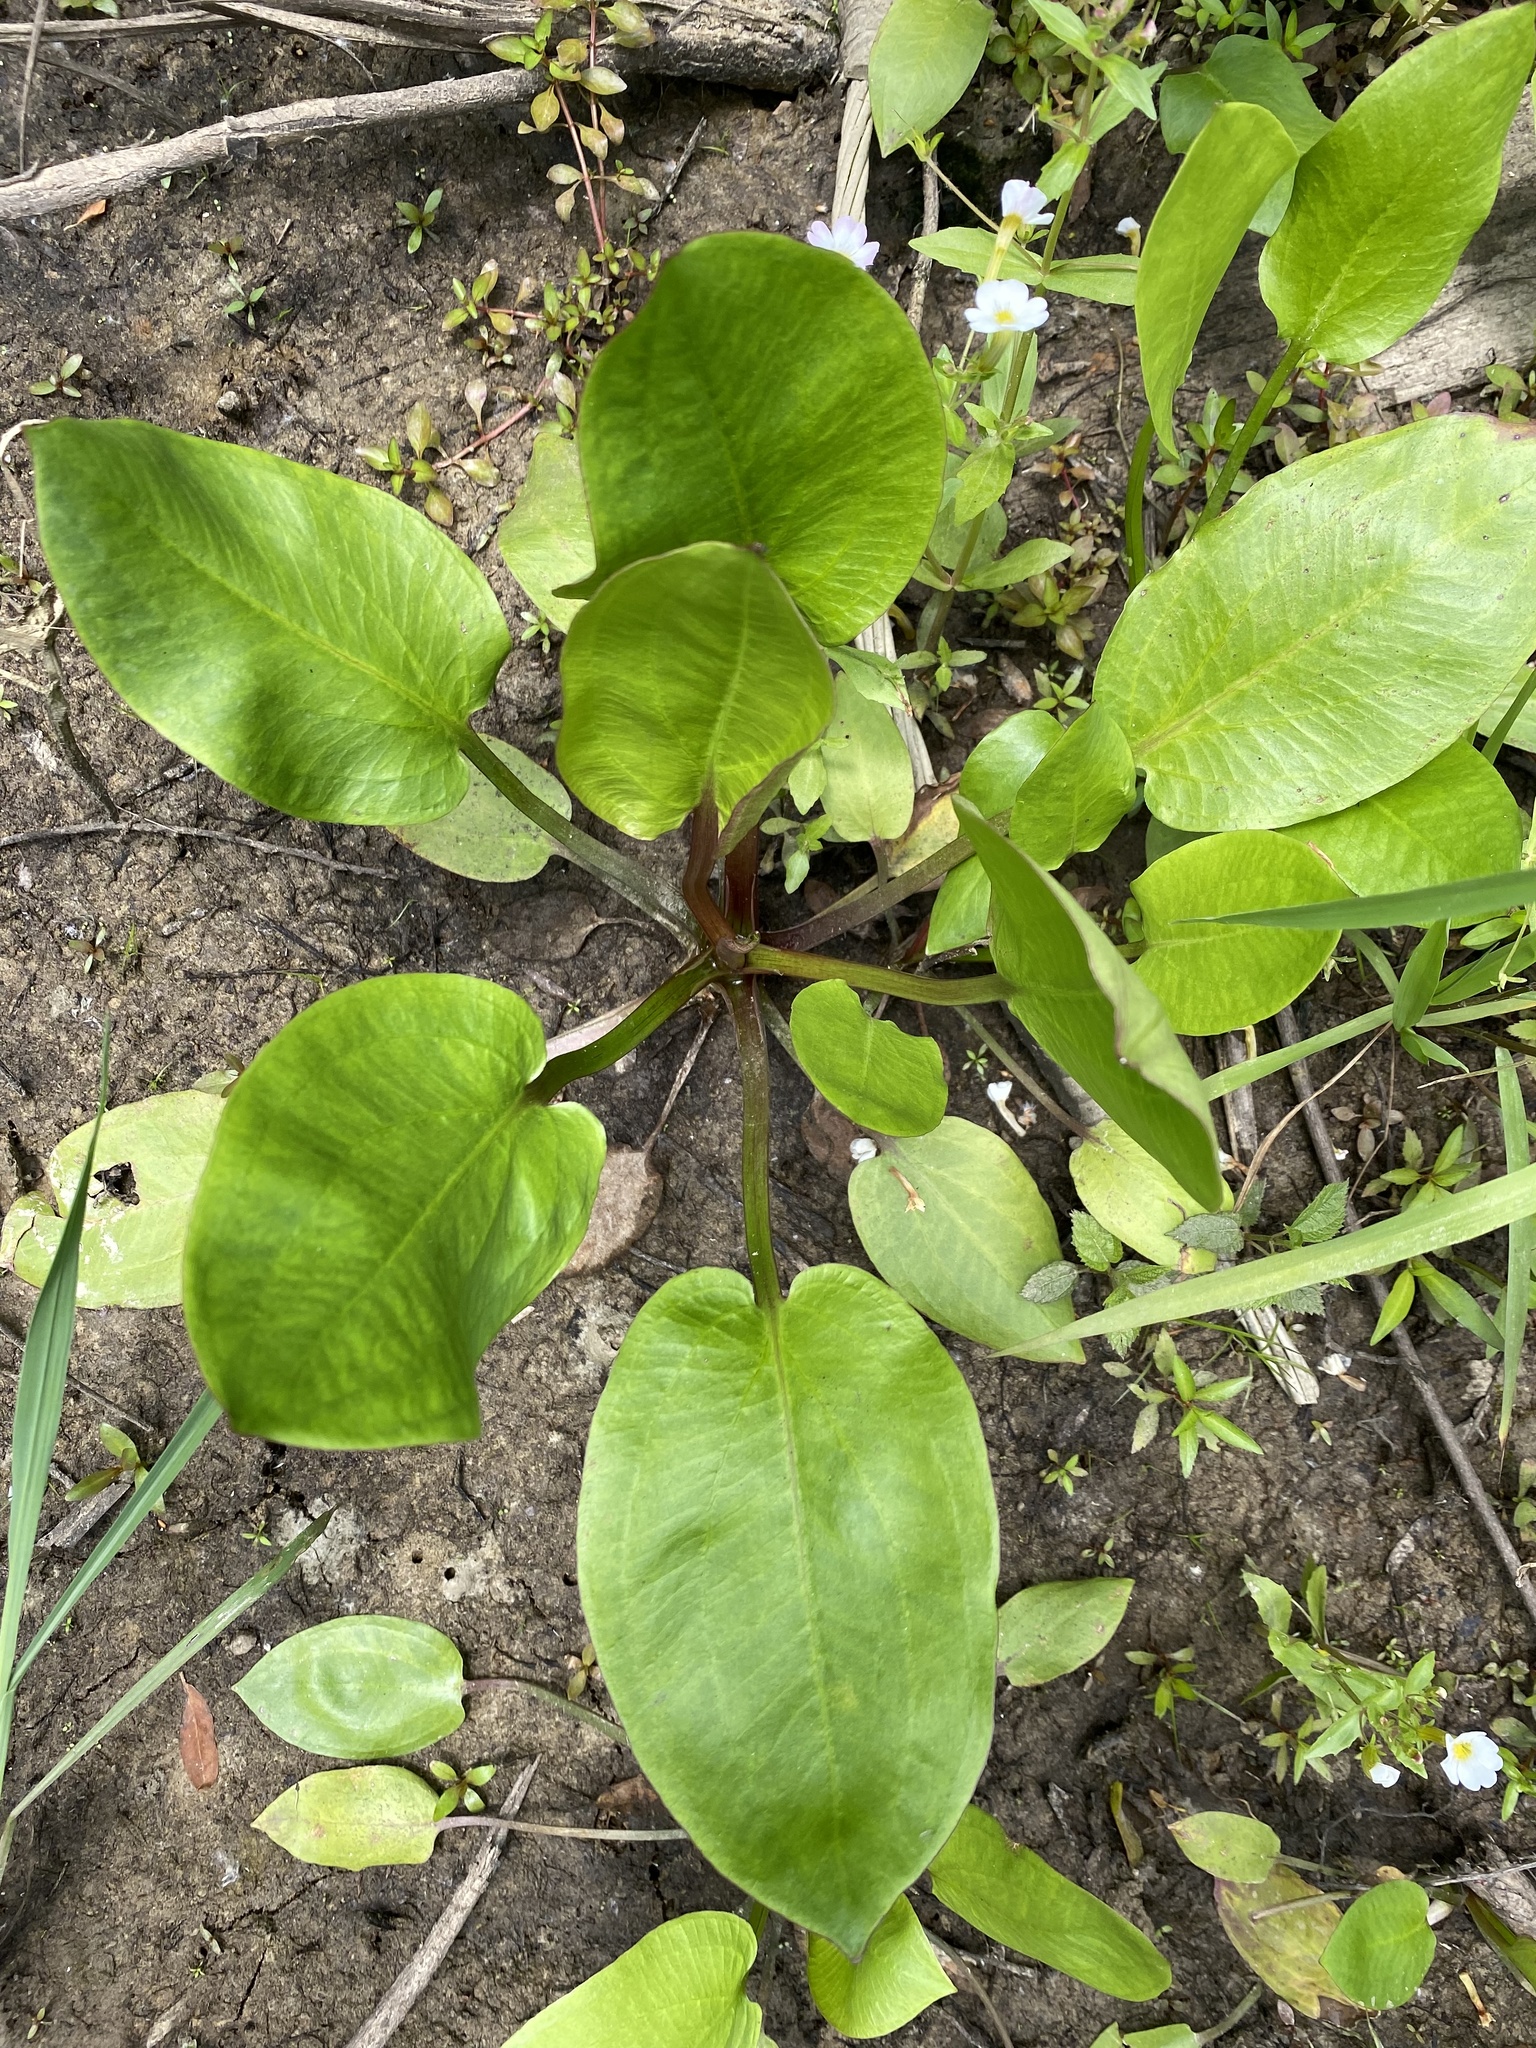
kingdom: Plantae
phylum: Tracheophyta
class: Liliopsida
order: Alismatales
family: Alismataceae
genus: Alisma
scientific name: Alisma subcordatum
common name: Southern water-plantain
